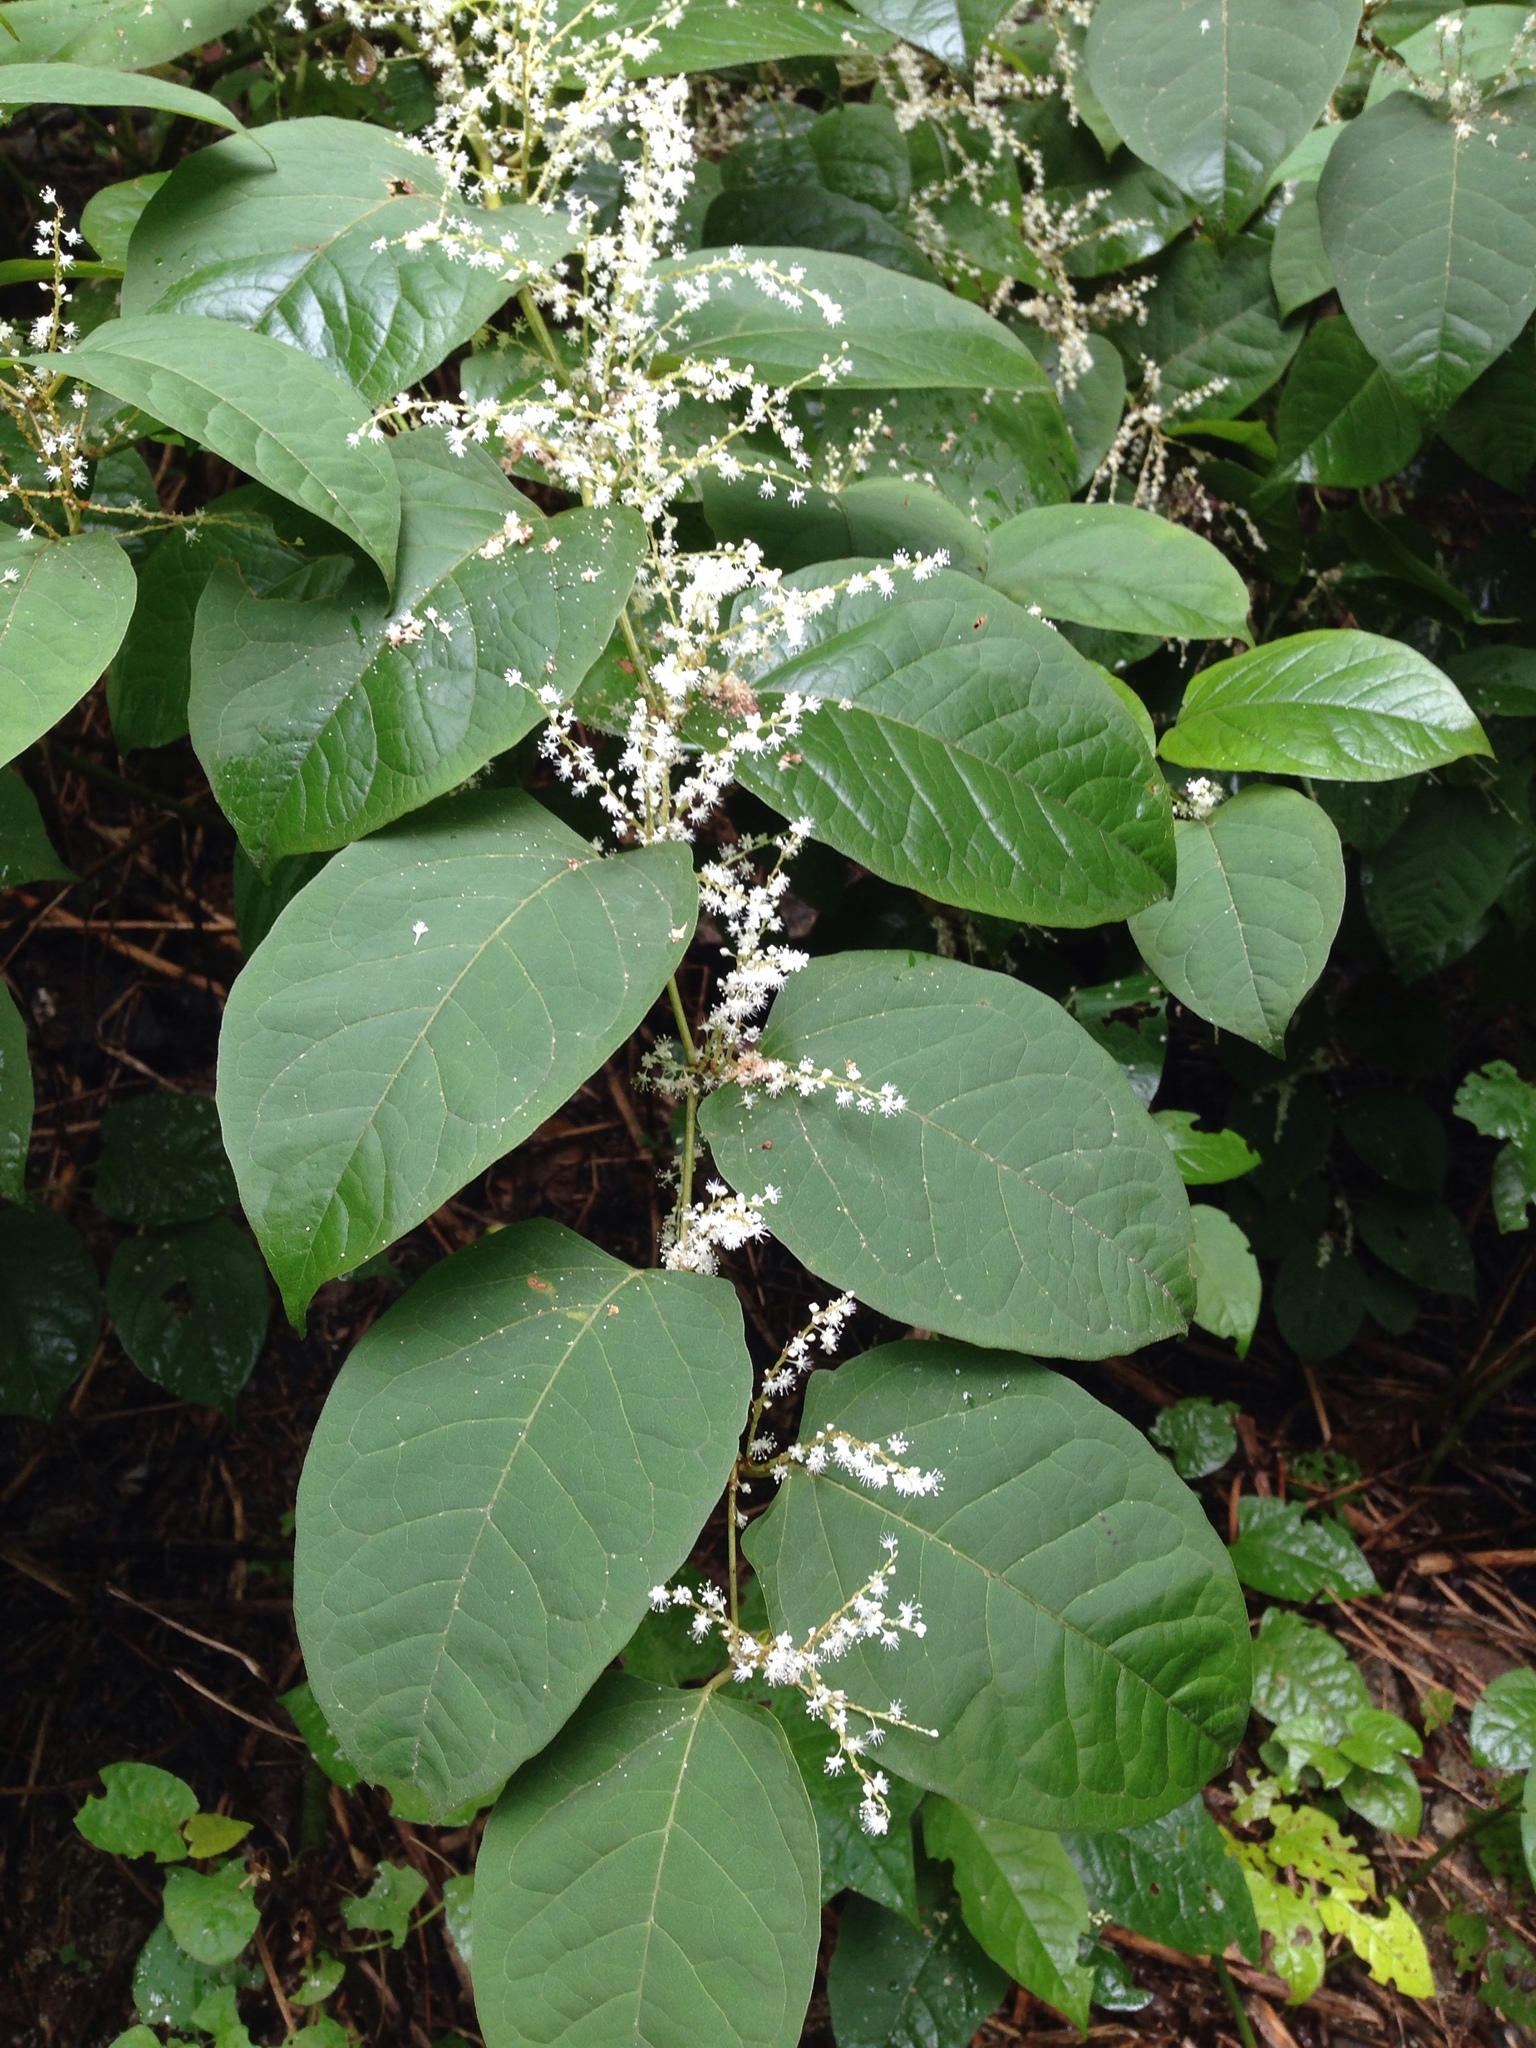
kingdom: Plantae
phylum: Tracheophyta
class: Magnoliopsida
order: Caryophyllales
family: Polygonaceae
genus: Reynoutria
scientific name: Reynoutria japonica
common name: Japanese knotweed
